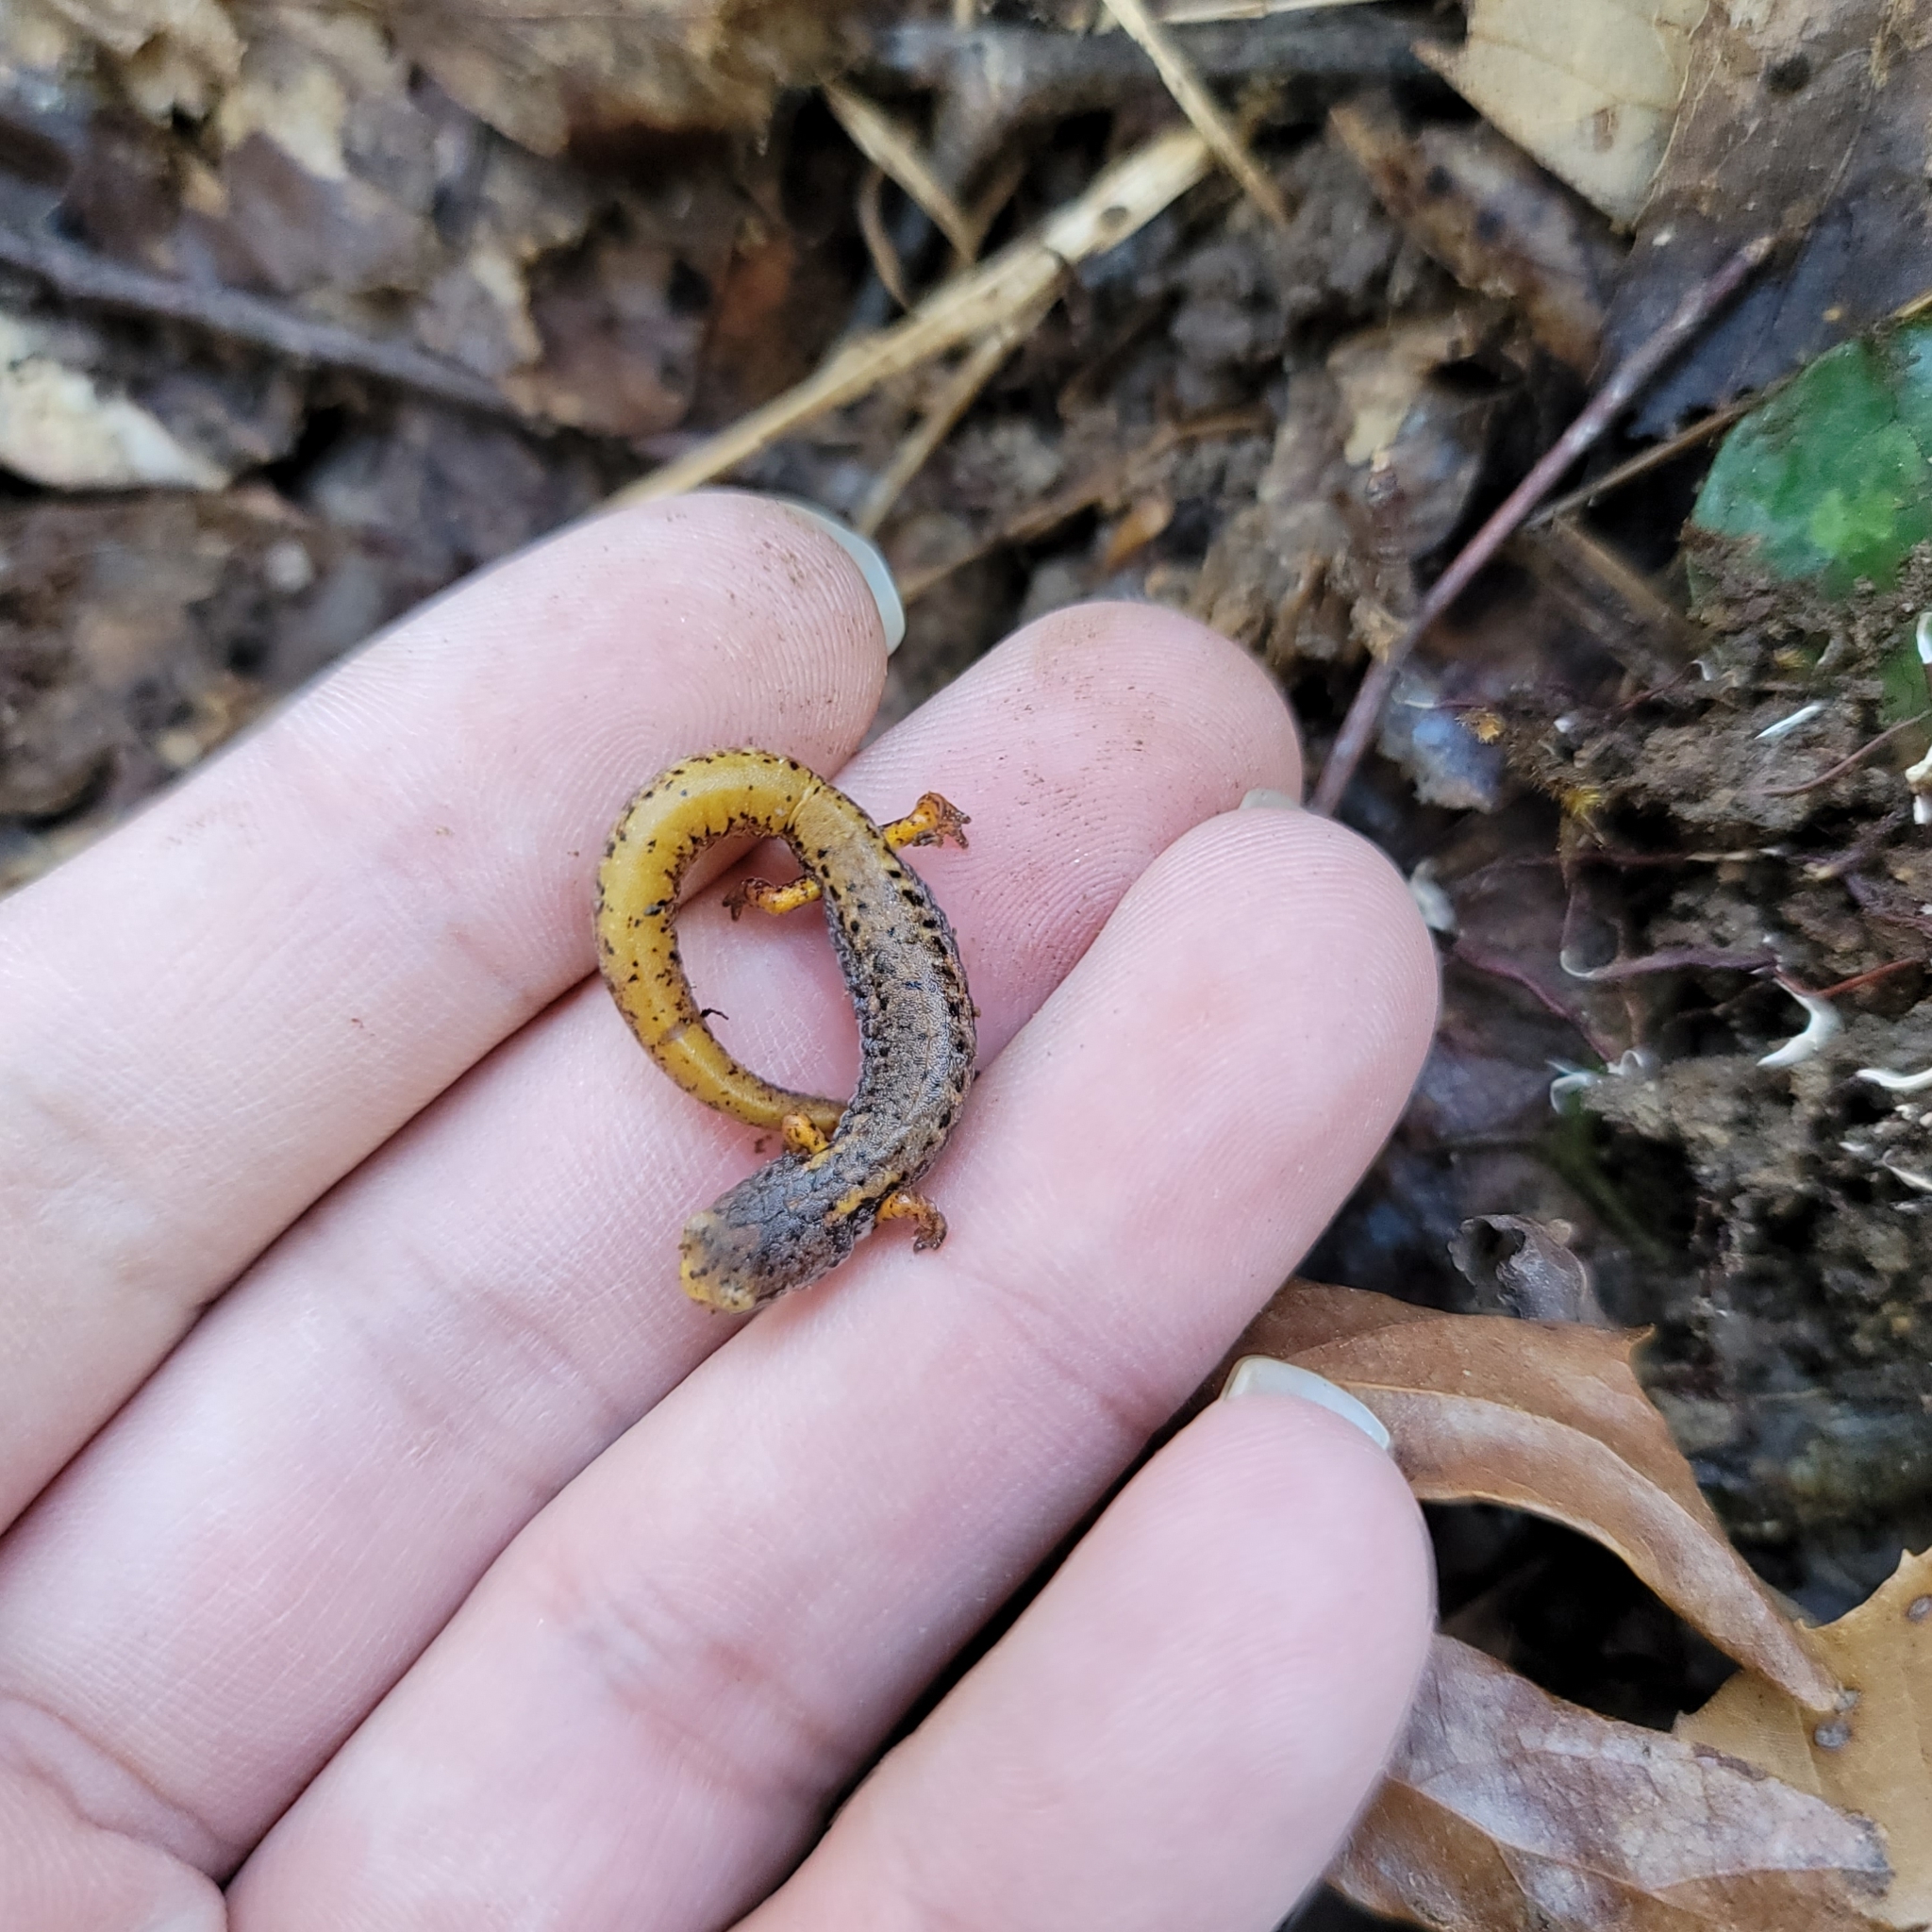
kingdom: Animalia
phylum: Chordata
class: Amphibia
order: Caudata
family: Plethodontidae
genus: Hemidactylium
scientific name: Hemidactylium scutatum
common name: Four-toed salamander
